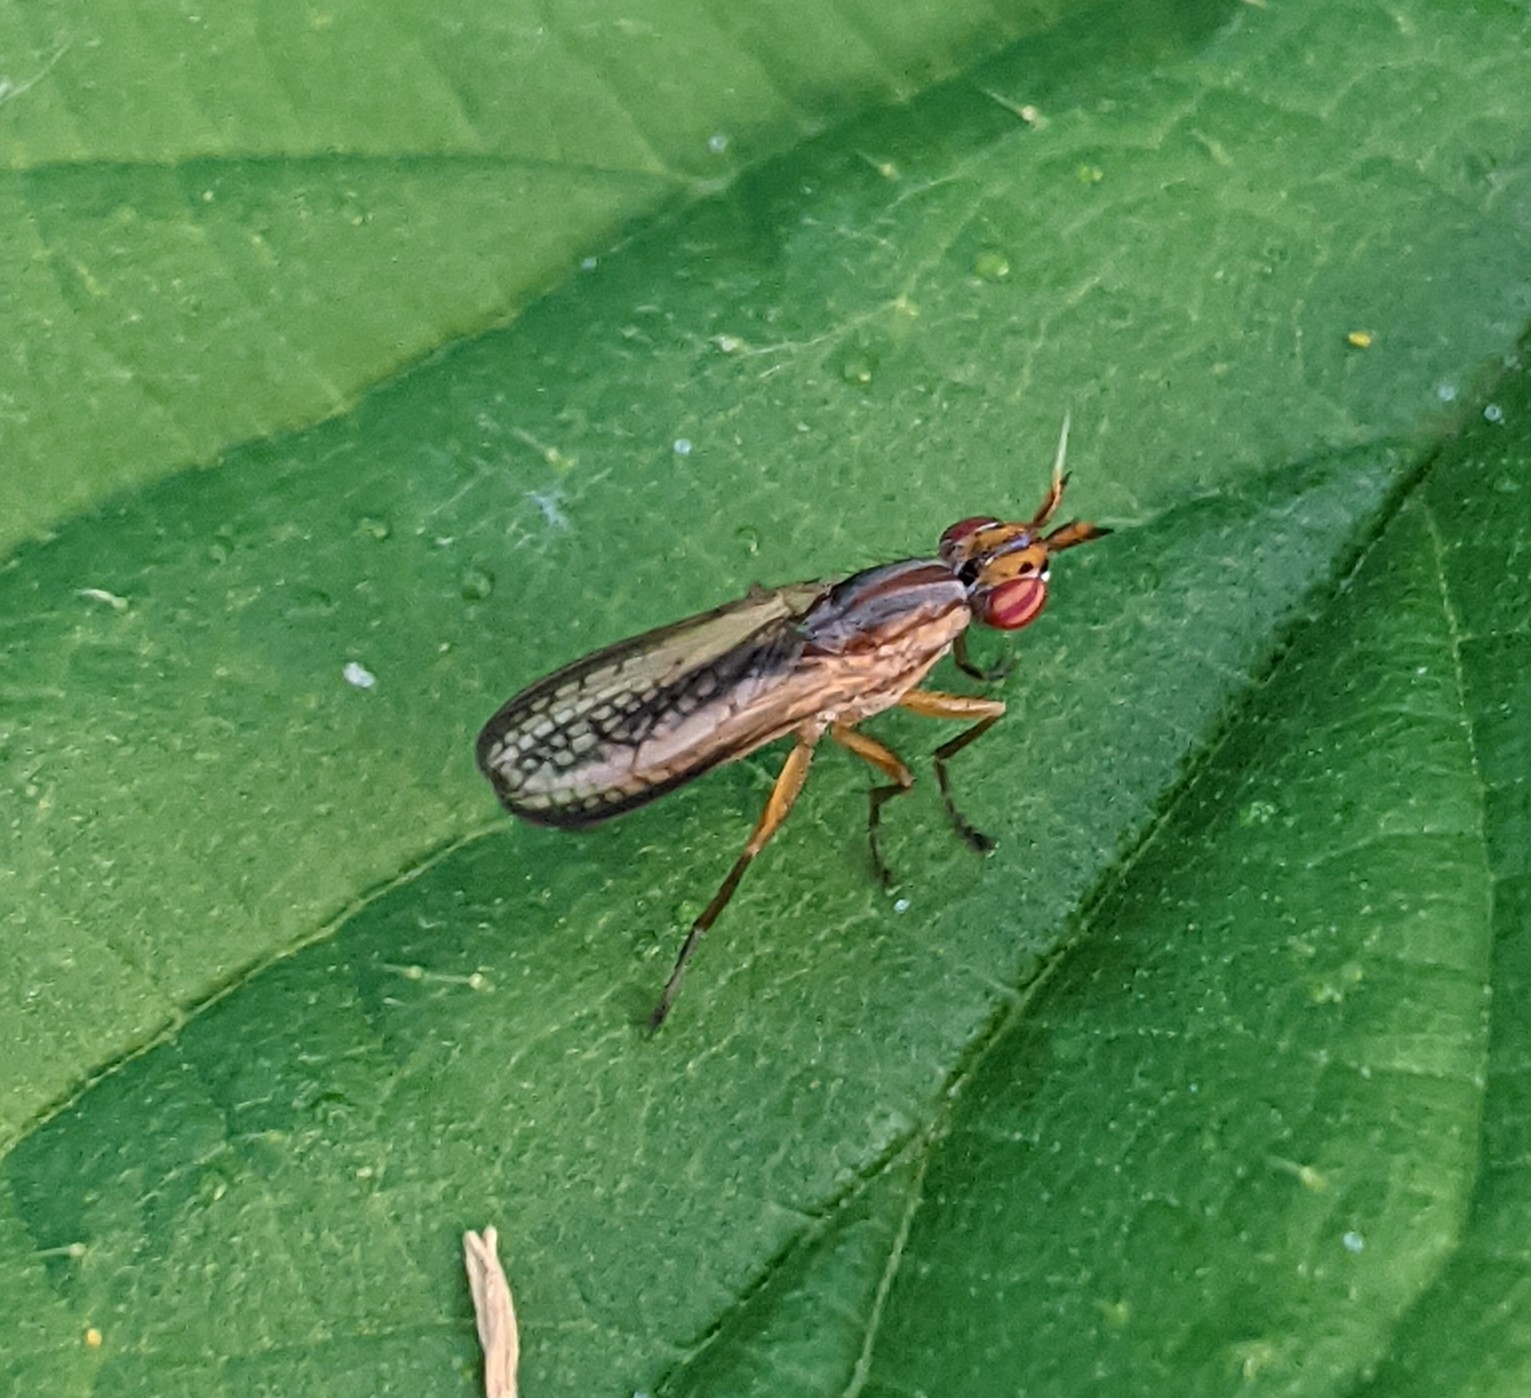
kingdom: Animalia
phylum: Arthropoda
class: Insecta
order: Diptera
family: Sciomyzidae
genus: Limnia
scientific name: Limnia unguicornis
